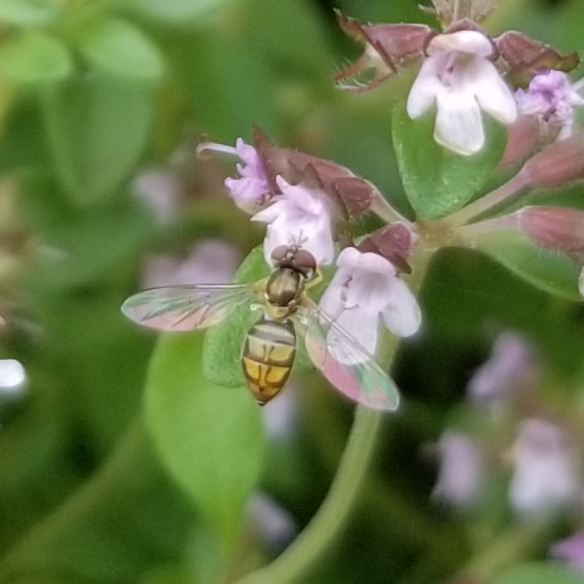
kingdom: Animalia
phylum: Arthropoda
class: Insecta
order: Diptera
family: Syrphidae
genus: Toxomerus
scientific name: Toxomerus marginatus
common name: Syrphid fly
